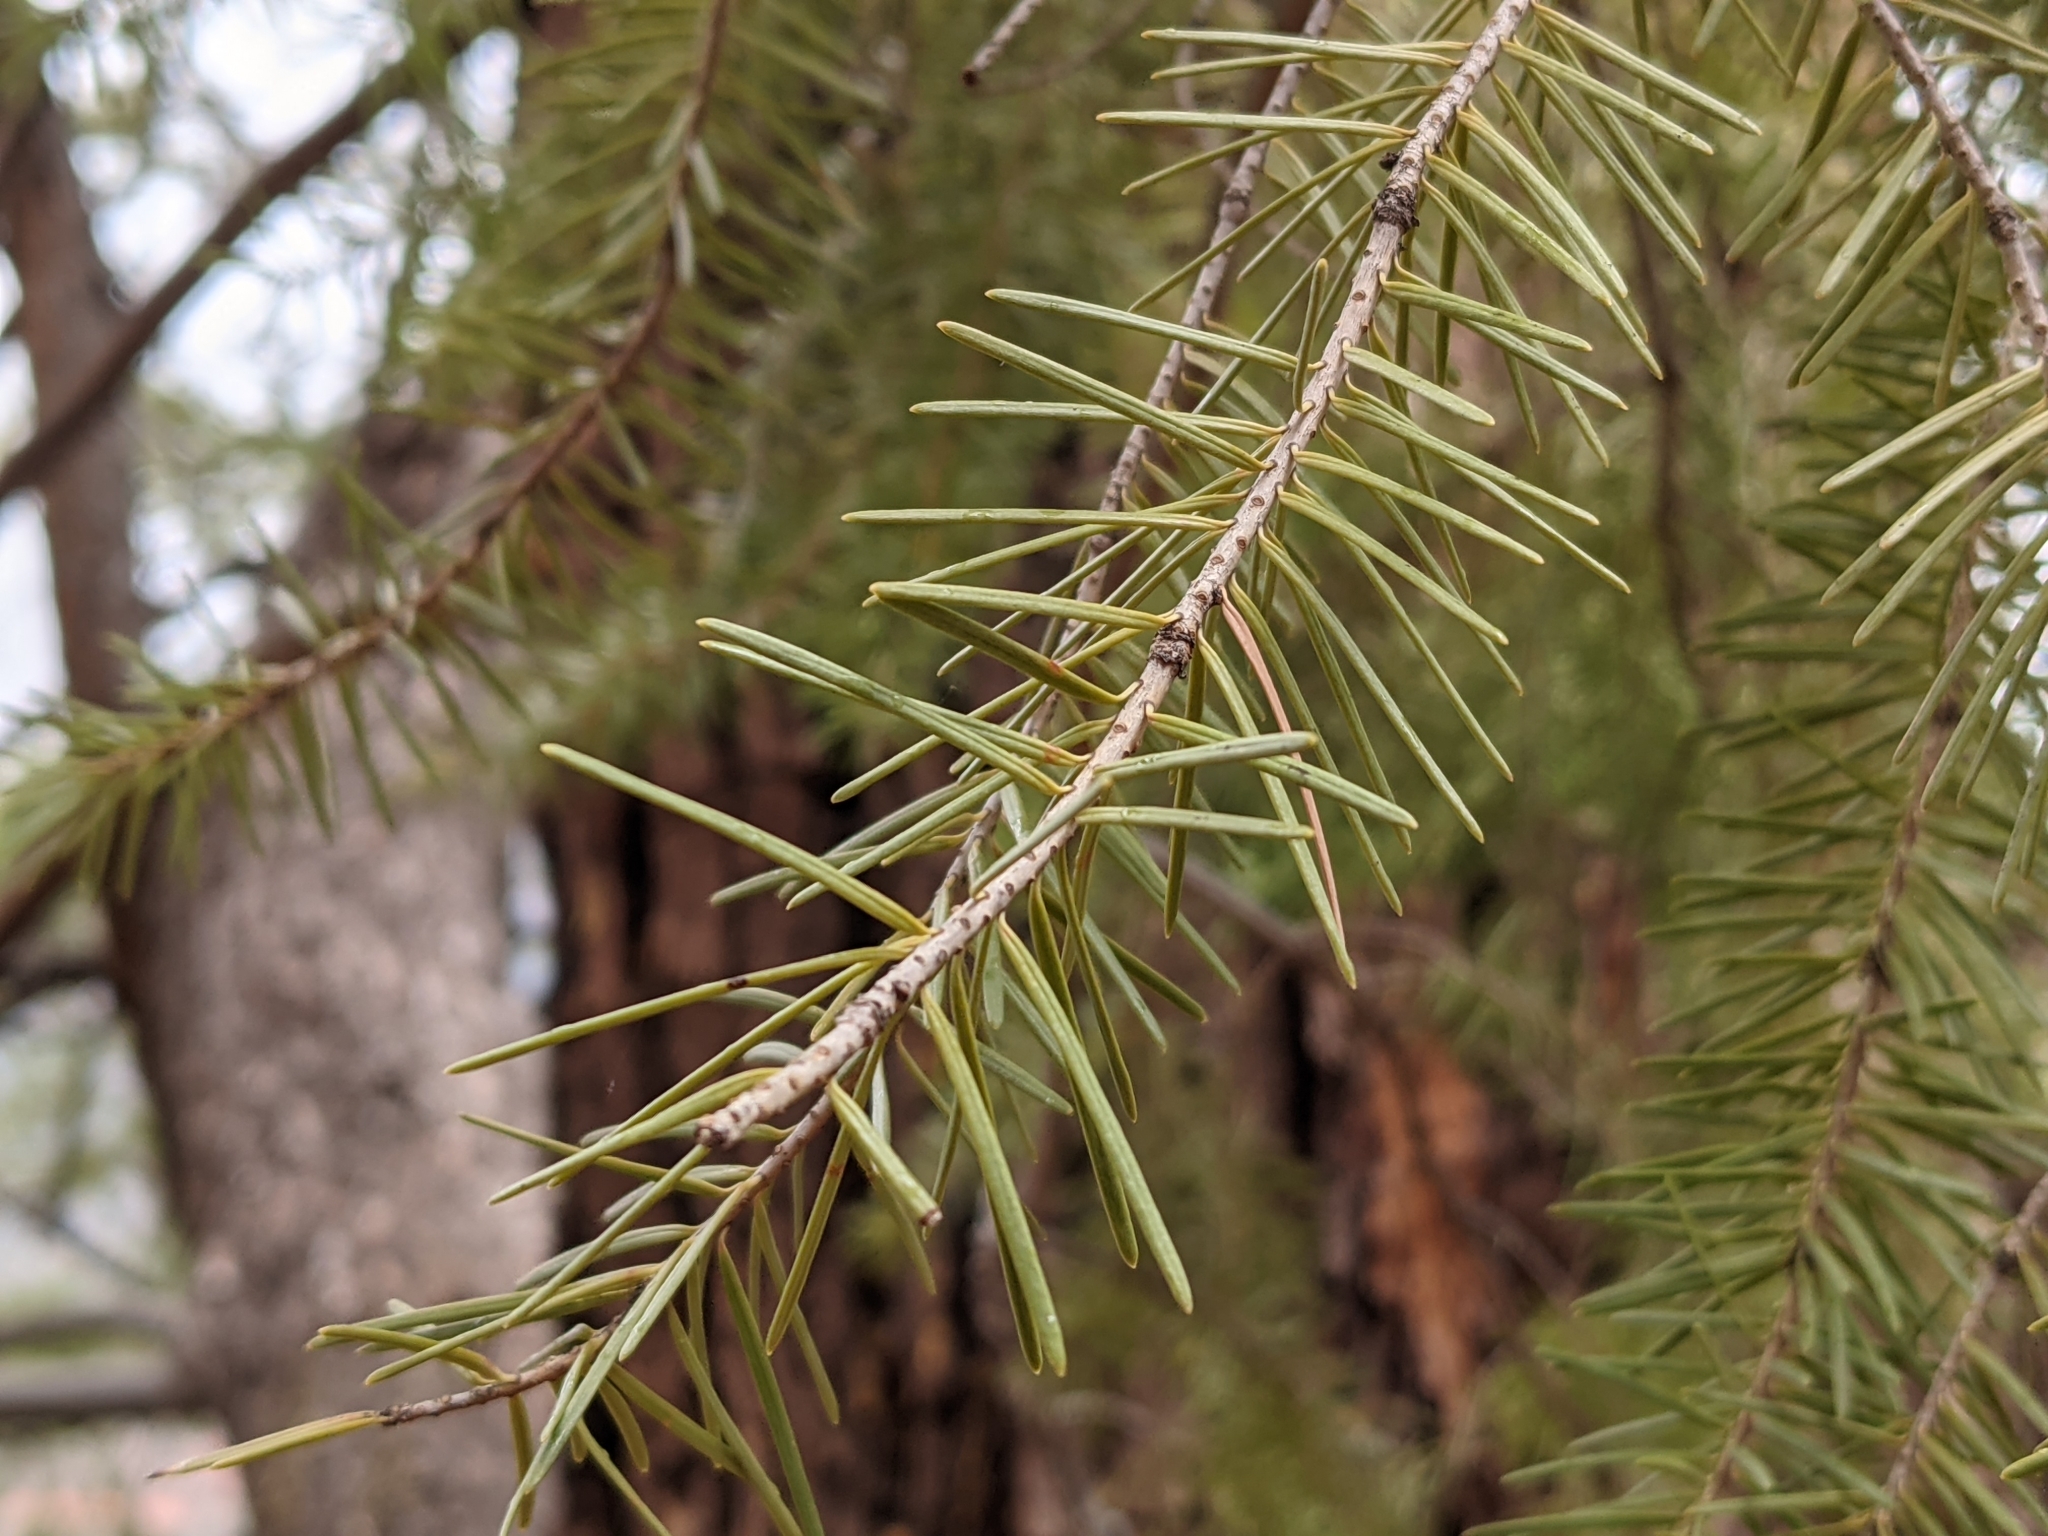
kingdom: Plantae
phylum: Tracheophyta
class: Pinopsida
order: Pinales
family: Pinaceae
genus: Pseudotsuga
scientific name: Pseudotsuga menziesii
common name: Douglas fir
